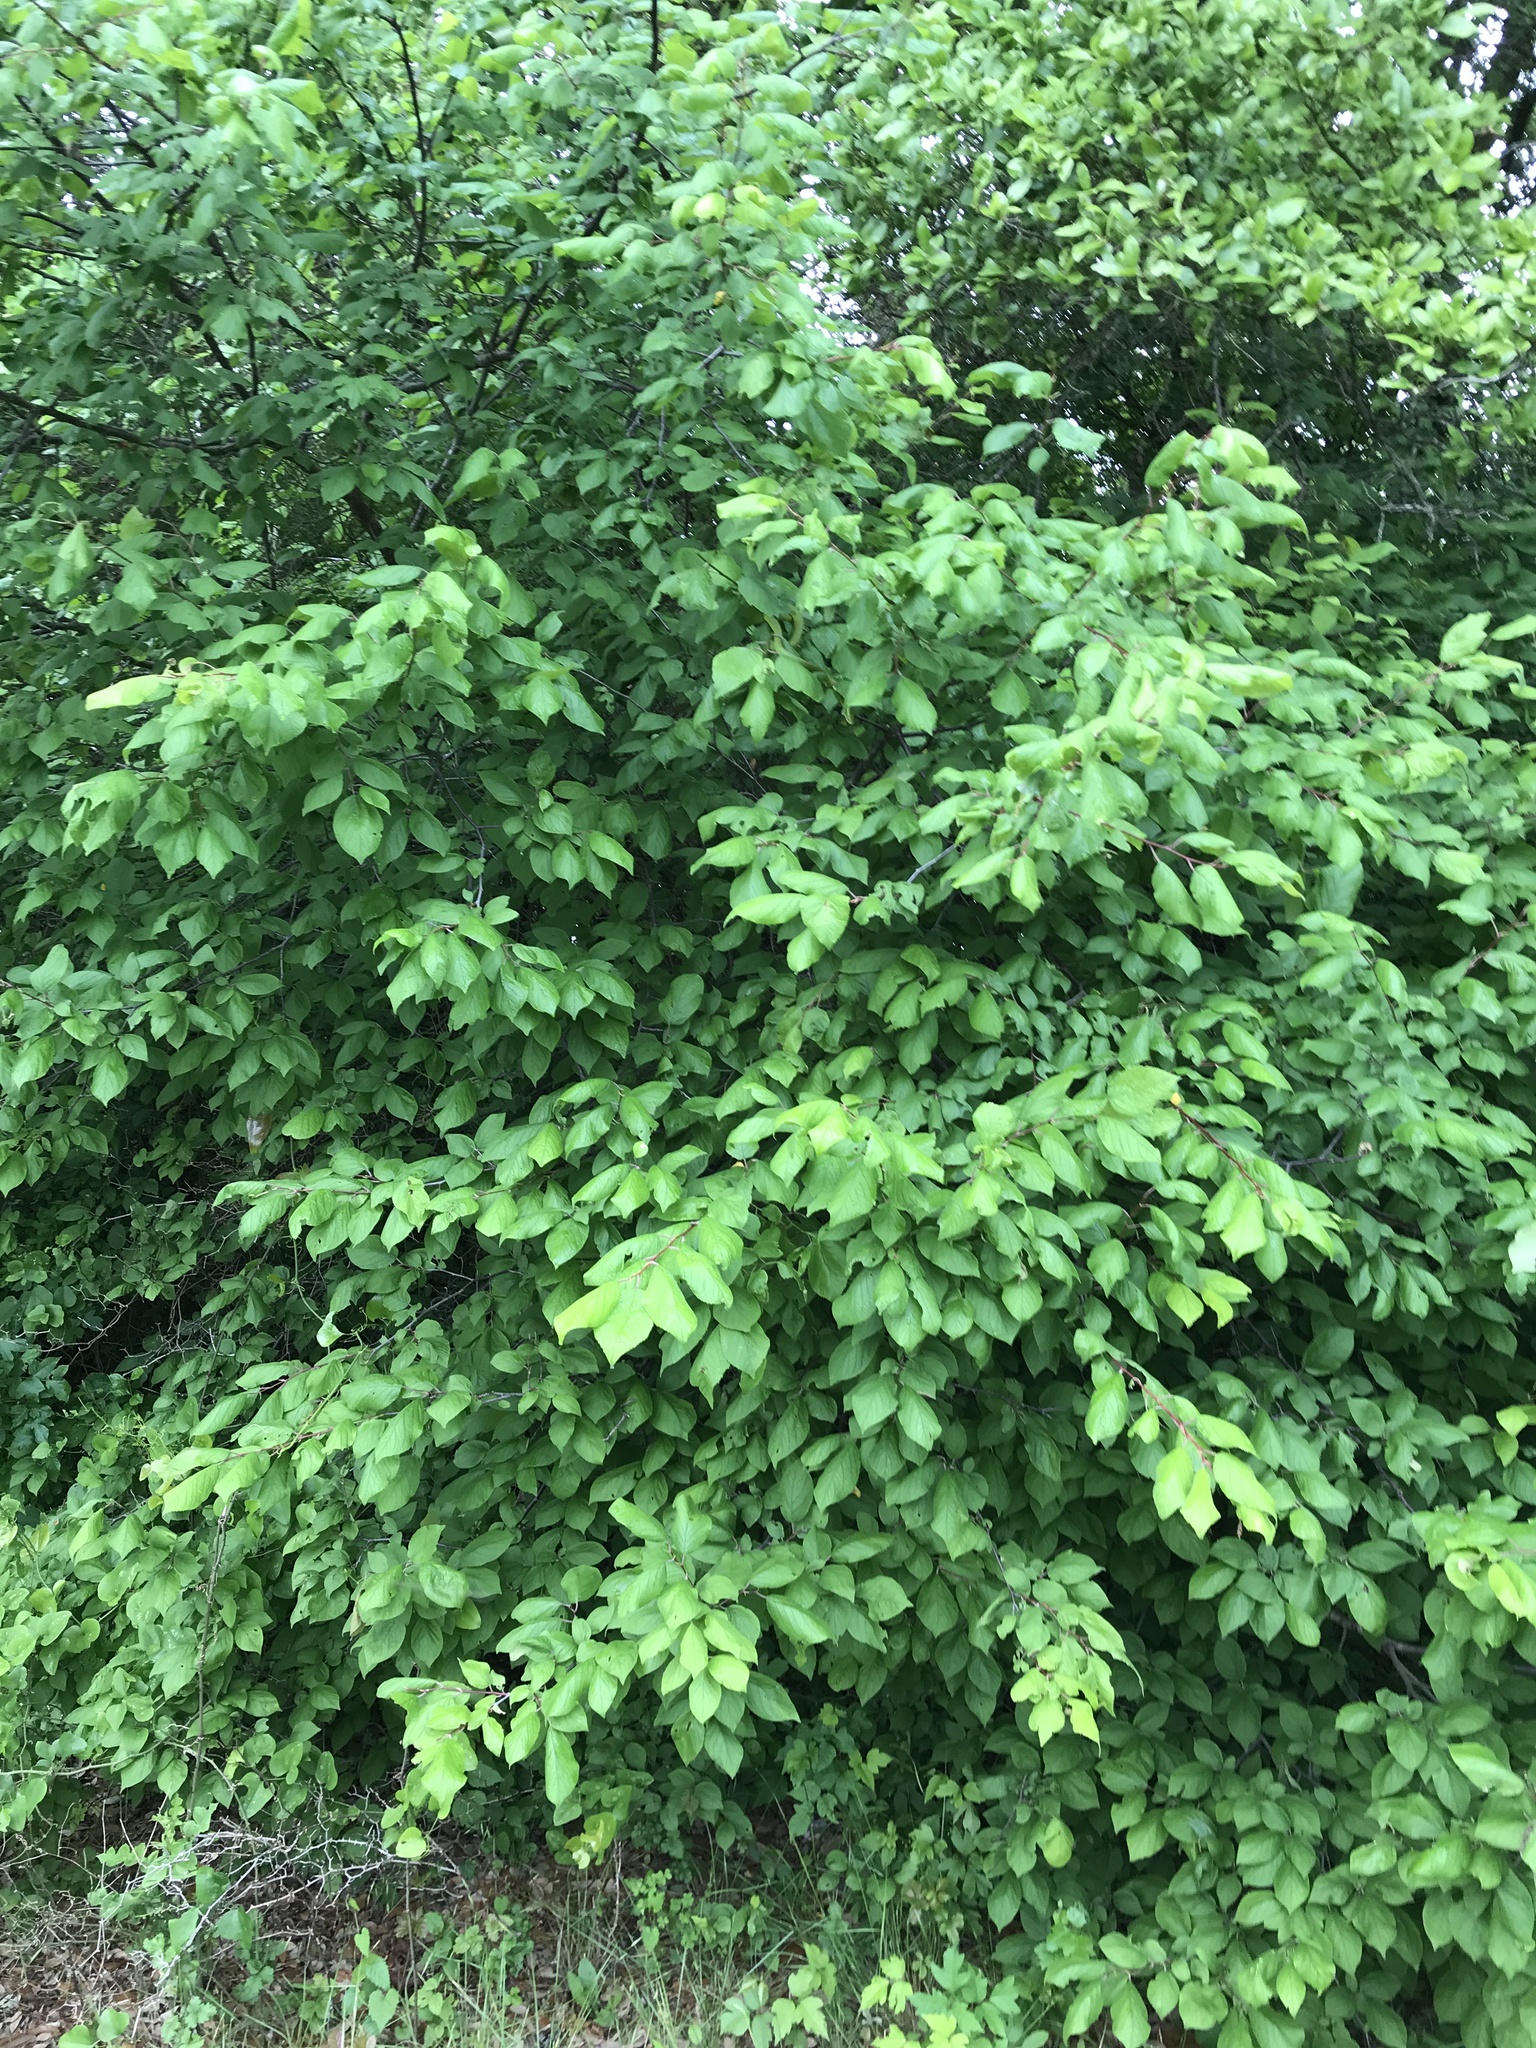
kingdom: Plantae
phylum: Tracheophyta
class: Magnoliopsida
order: Rosales
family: Rosaceae
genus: Prunus
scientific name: Prunus mexicana
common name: Mexican plum
